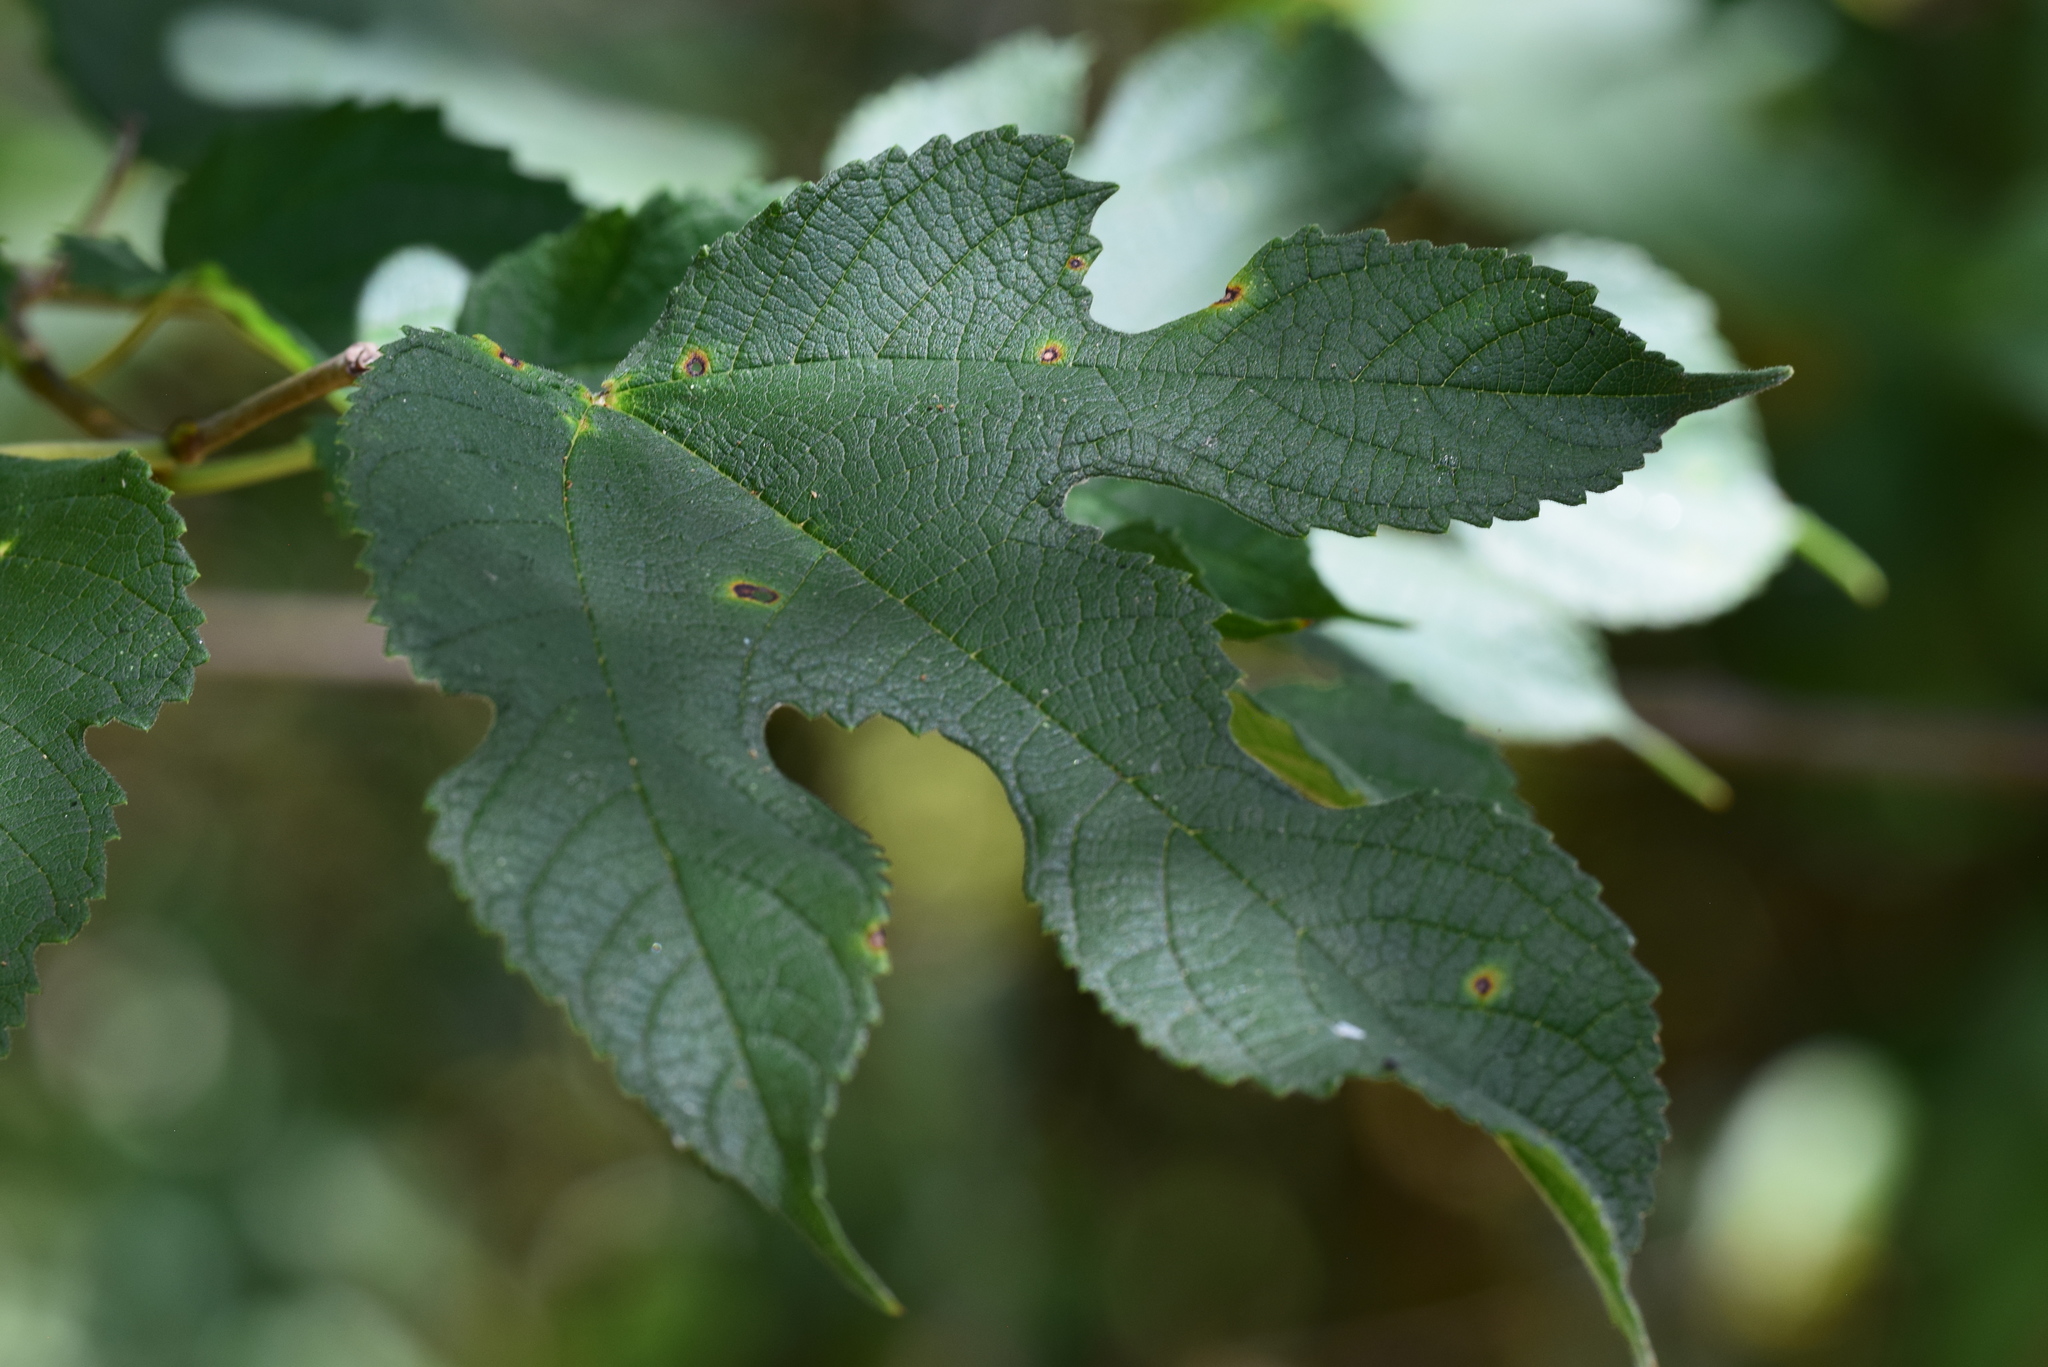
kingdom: Plantae
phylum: Tracheophyta
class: Magnoliopsida
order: Rosales
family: Moraceae
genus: Morus
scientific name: Morus rubra
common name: Red mulberry
